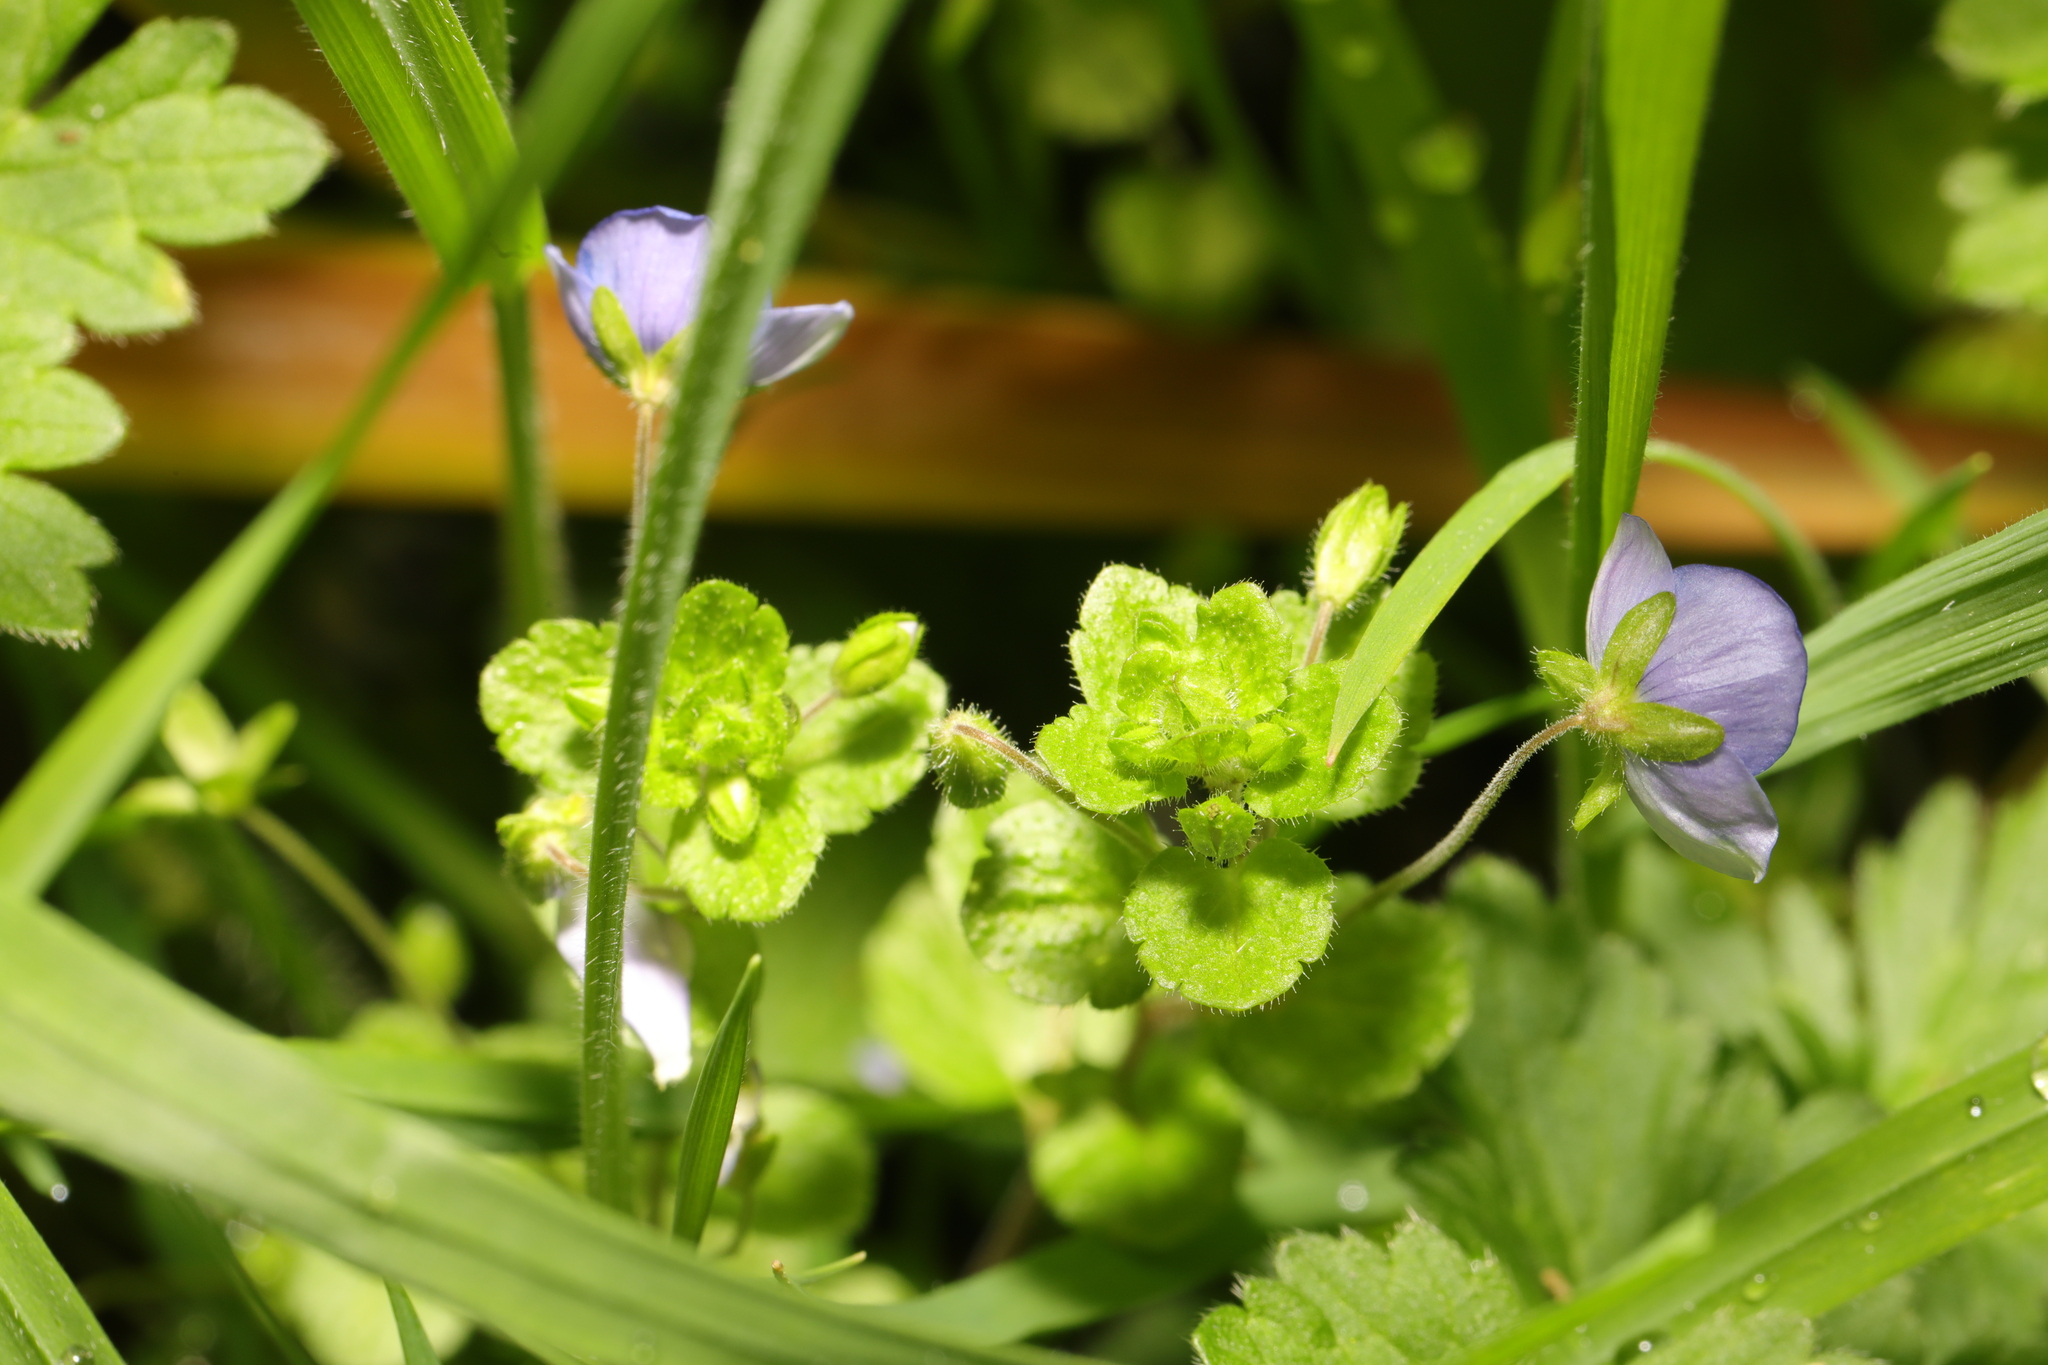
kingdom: Plantae
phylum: Tracheophyta
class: Magnoliopsida
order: Lamiales
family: Plantaginaceae
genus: Veronica
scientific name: Veronica filiformis
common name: Slender speedwell
